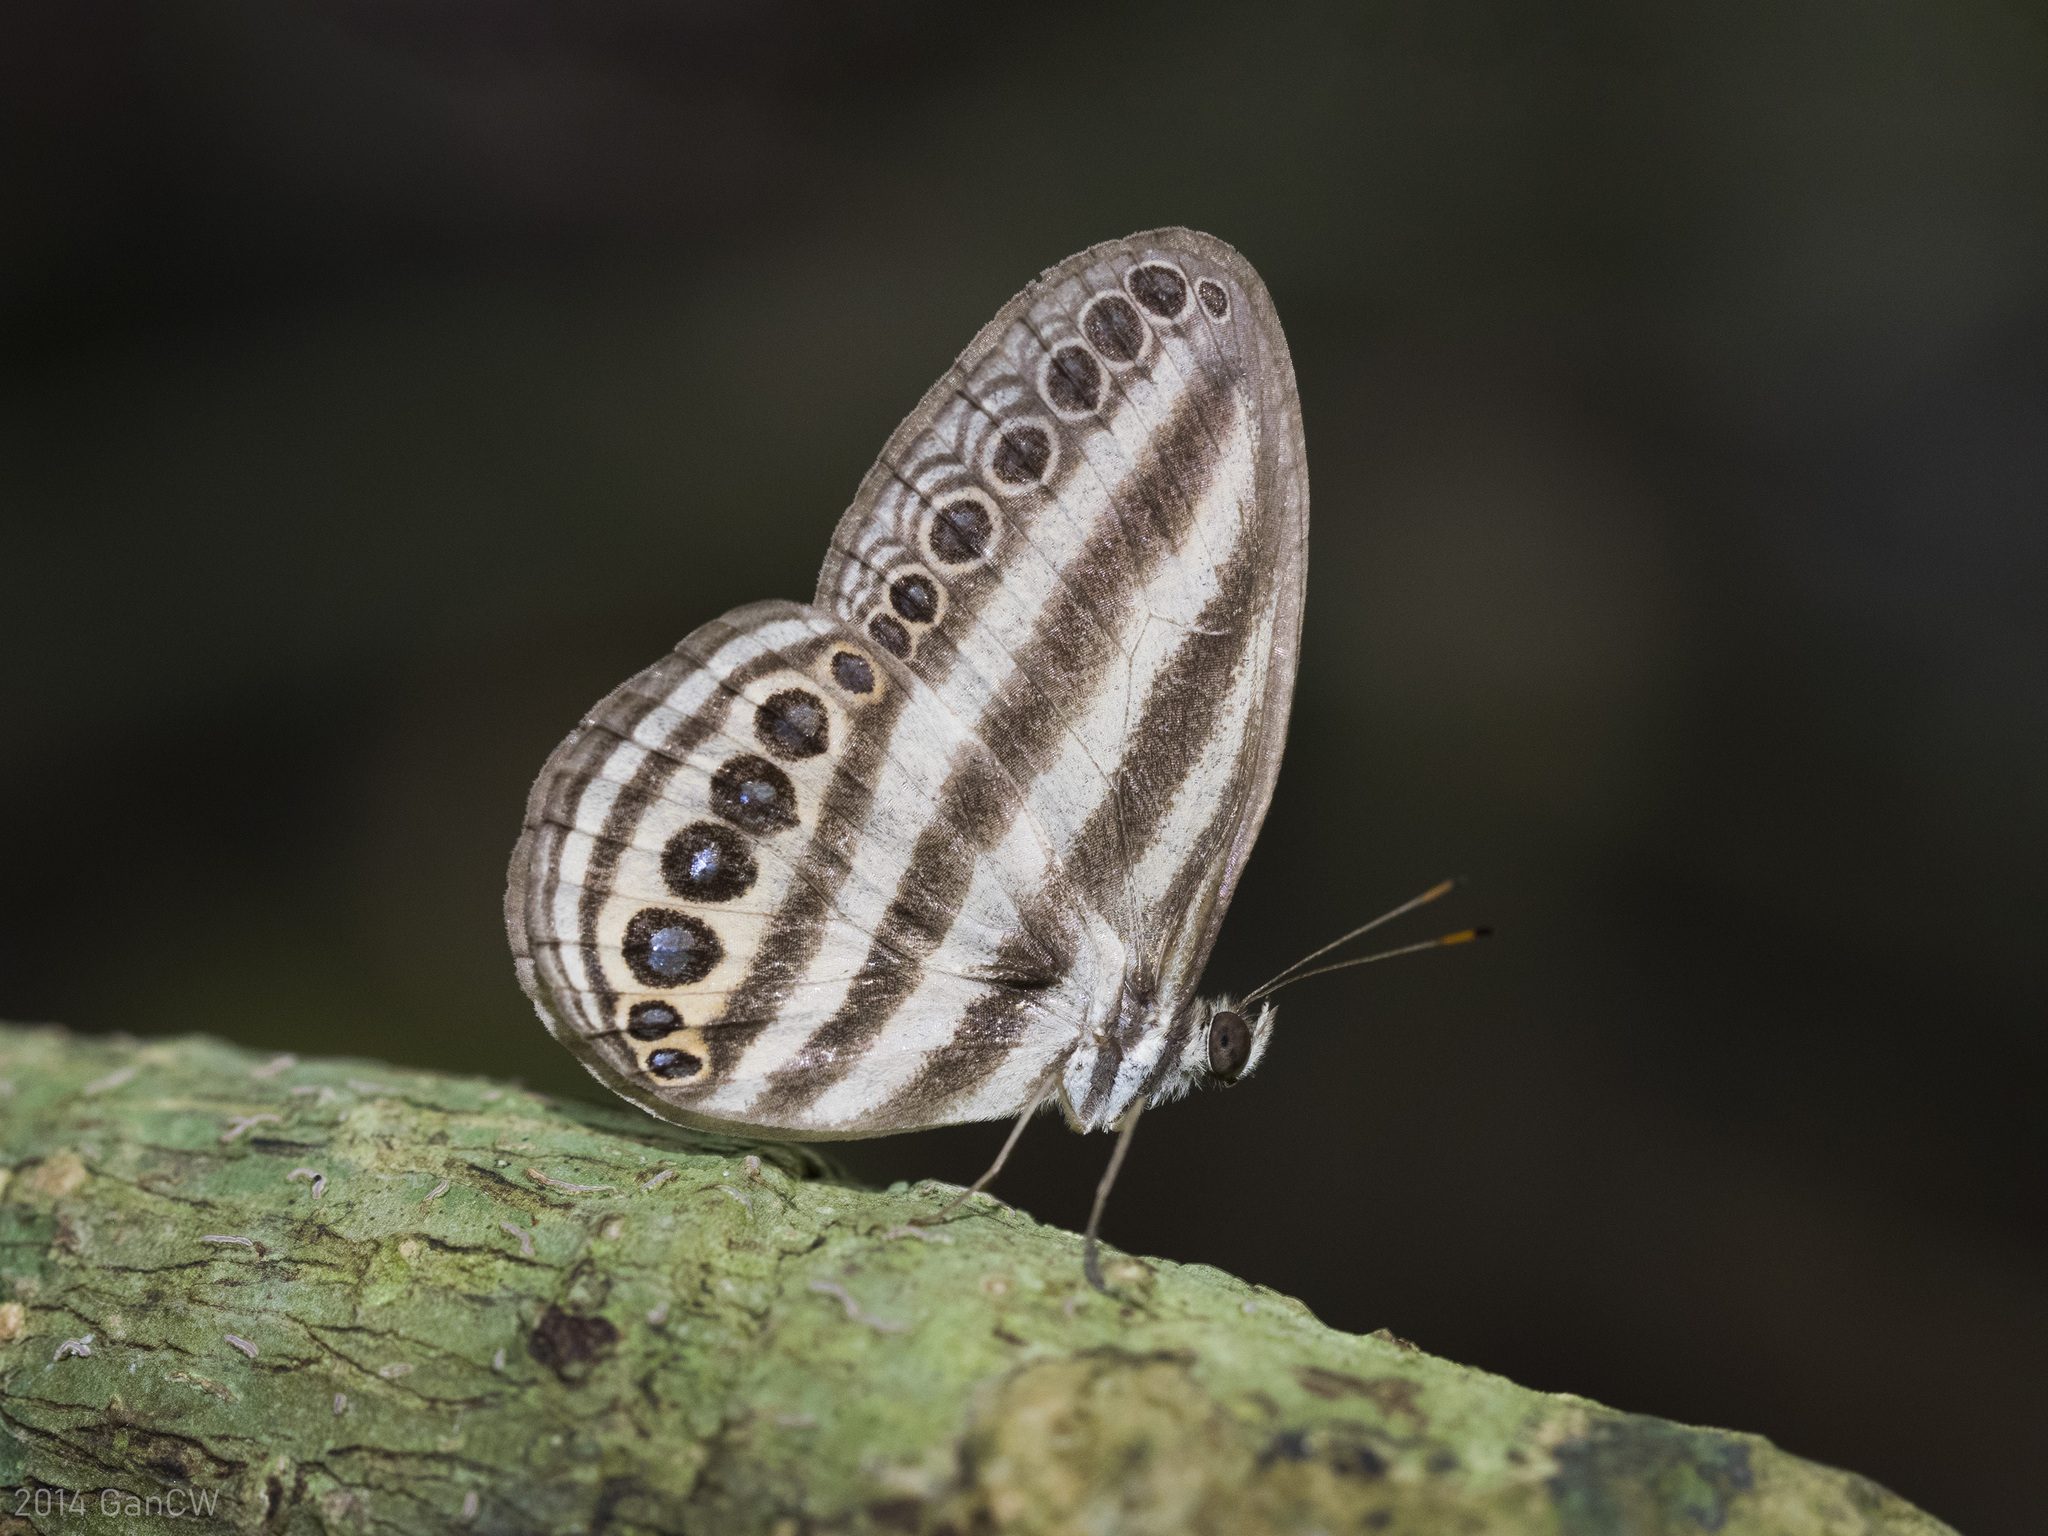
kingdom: Animalia
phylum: Arthropoda
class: Insecta
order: Lepidoptera
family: Nymphalidae
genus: Ragadia
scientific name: Ragadia makuta
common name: Striped ringlet
